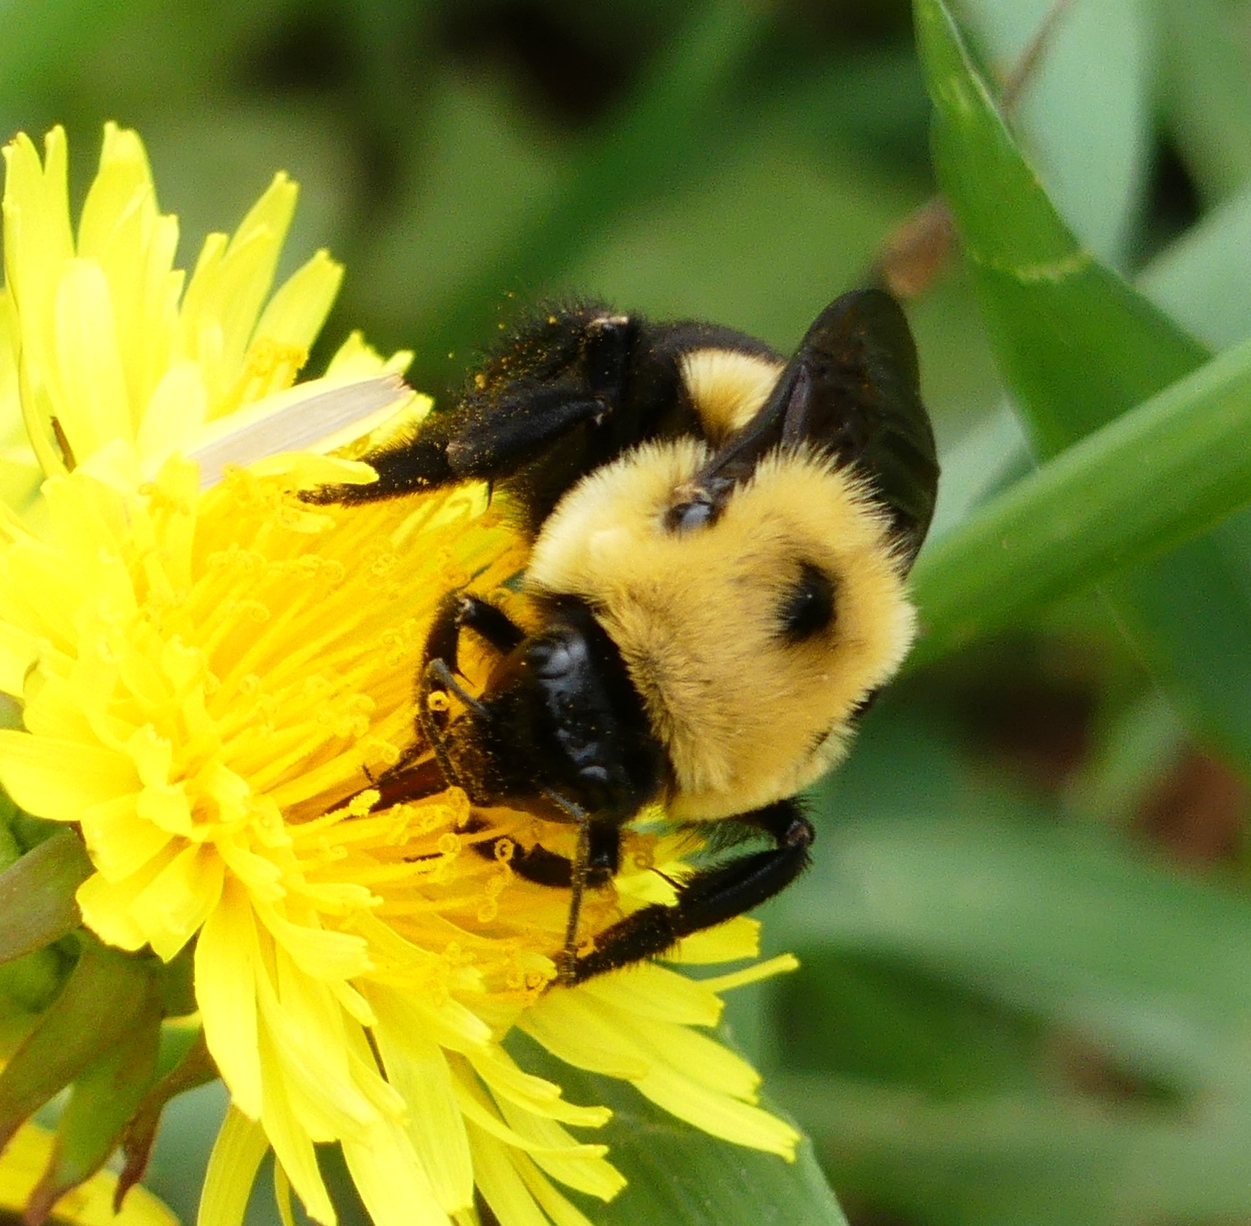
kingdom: Animalia
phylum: Arthropoda
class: Insecta
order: Hymenoptera
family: Apidae
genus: Bombus
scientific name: Bombus griseocollis
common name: Brown-belted bumble bee
